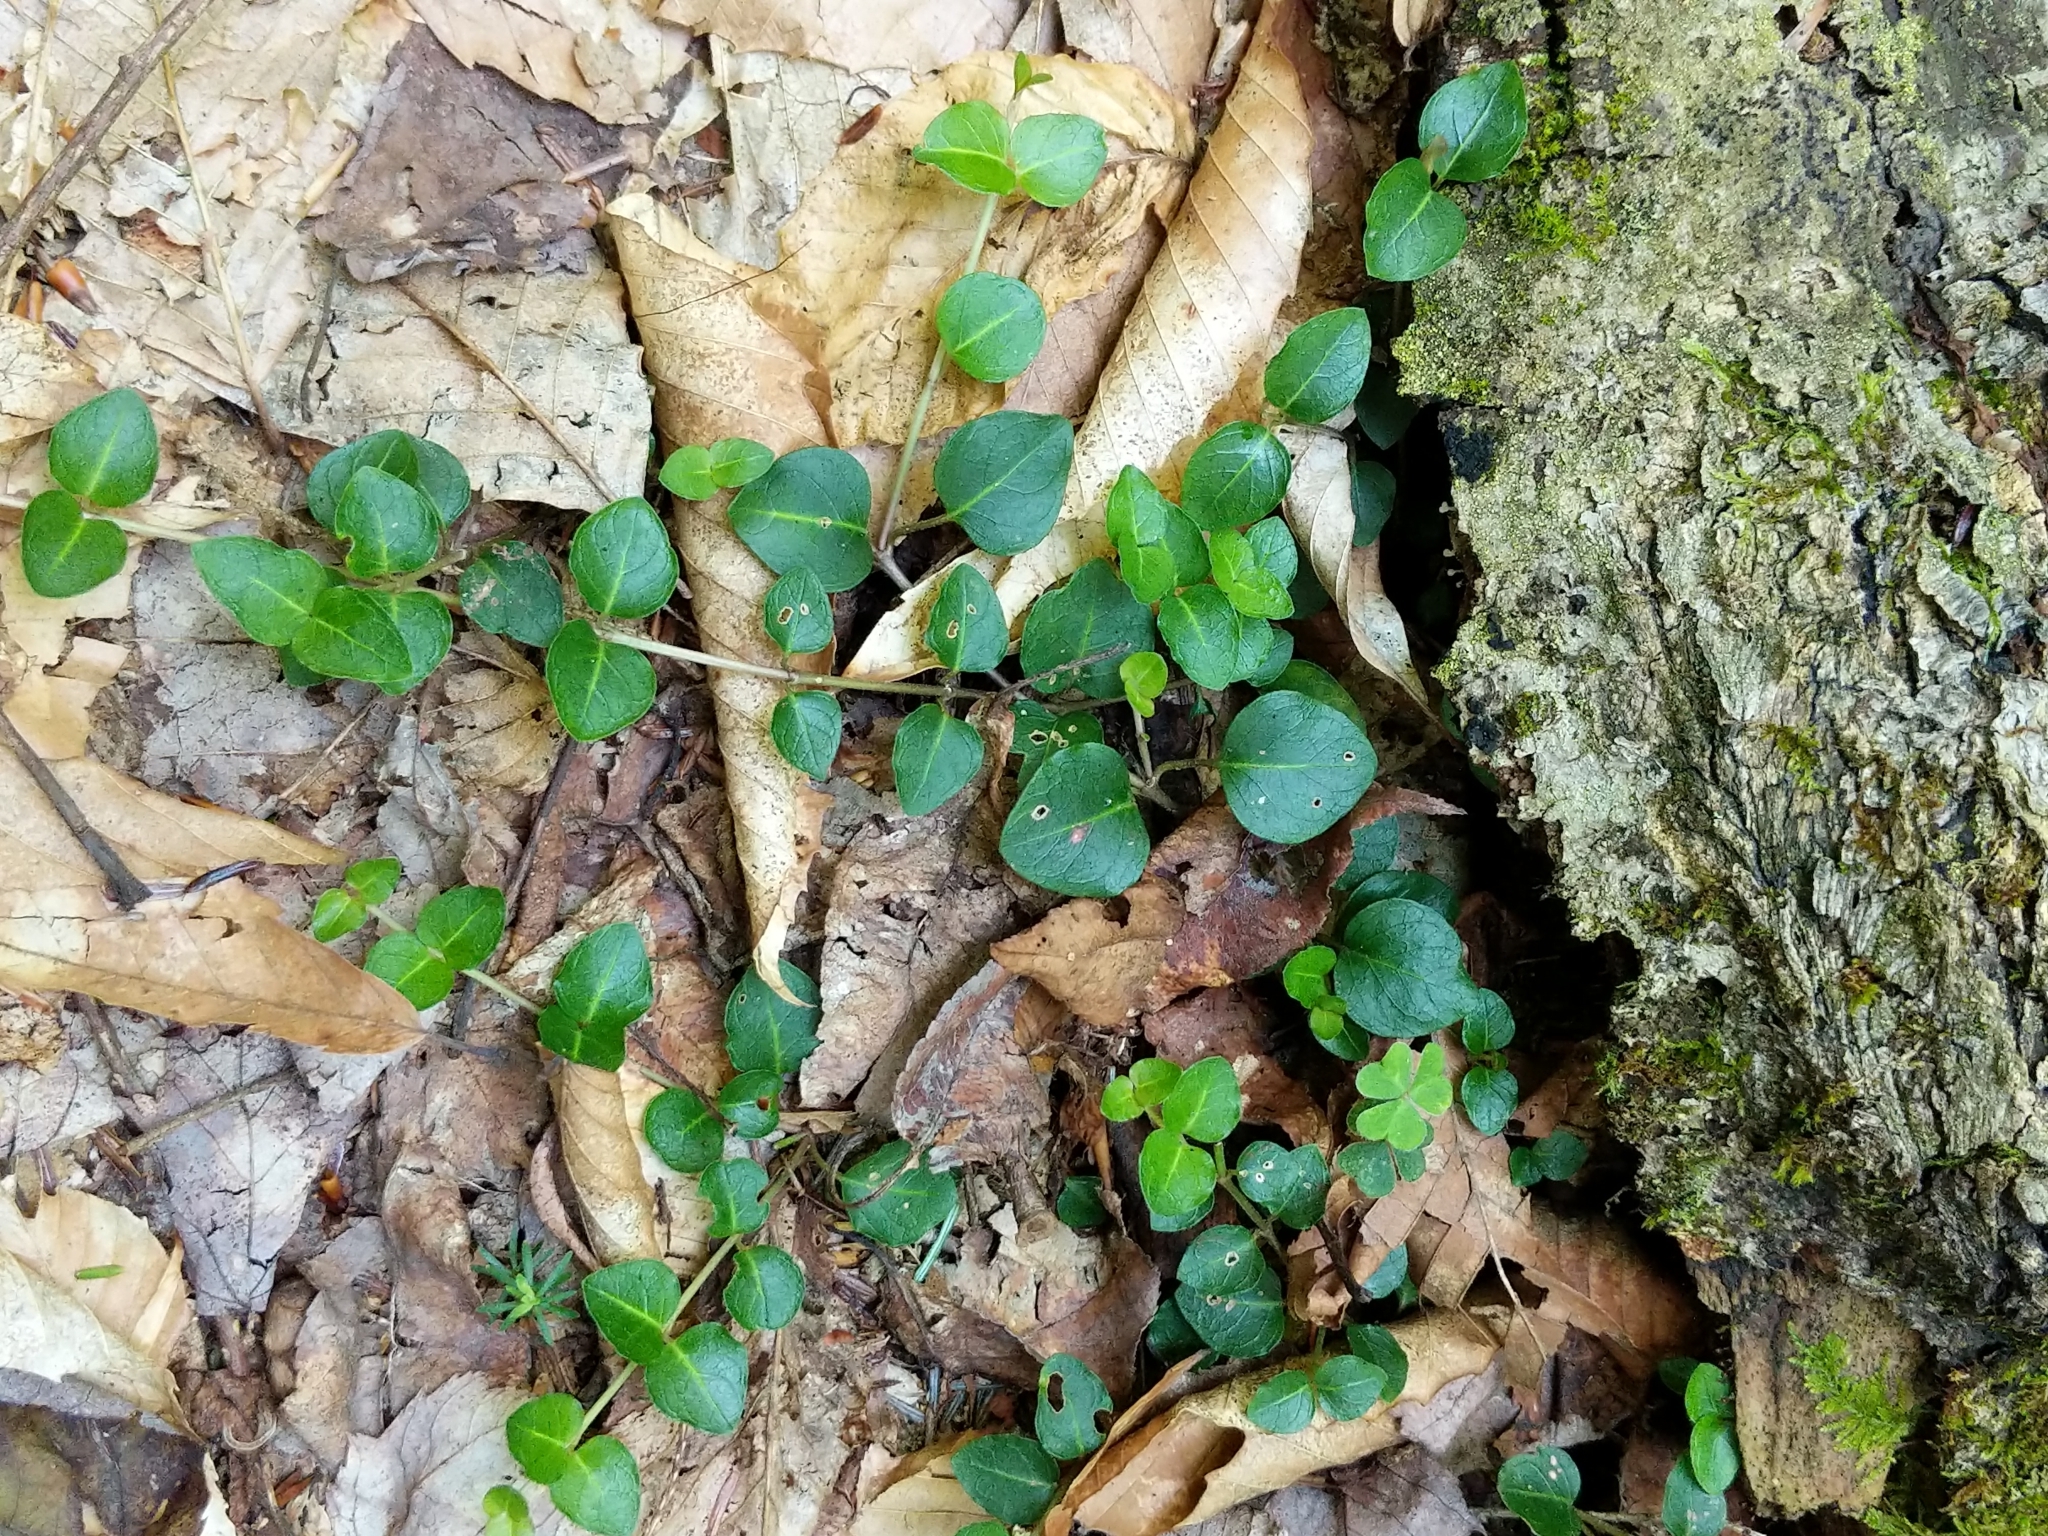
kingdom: Plantae
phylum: Tracheophyta
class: Magnoliopsida
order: Gentianales
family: Rubiaceae
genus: Mitchella
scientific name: Mitchella repens
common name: Partridge-berry
